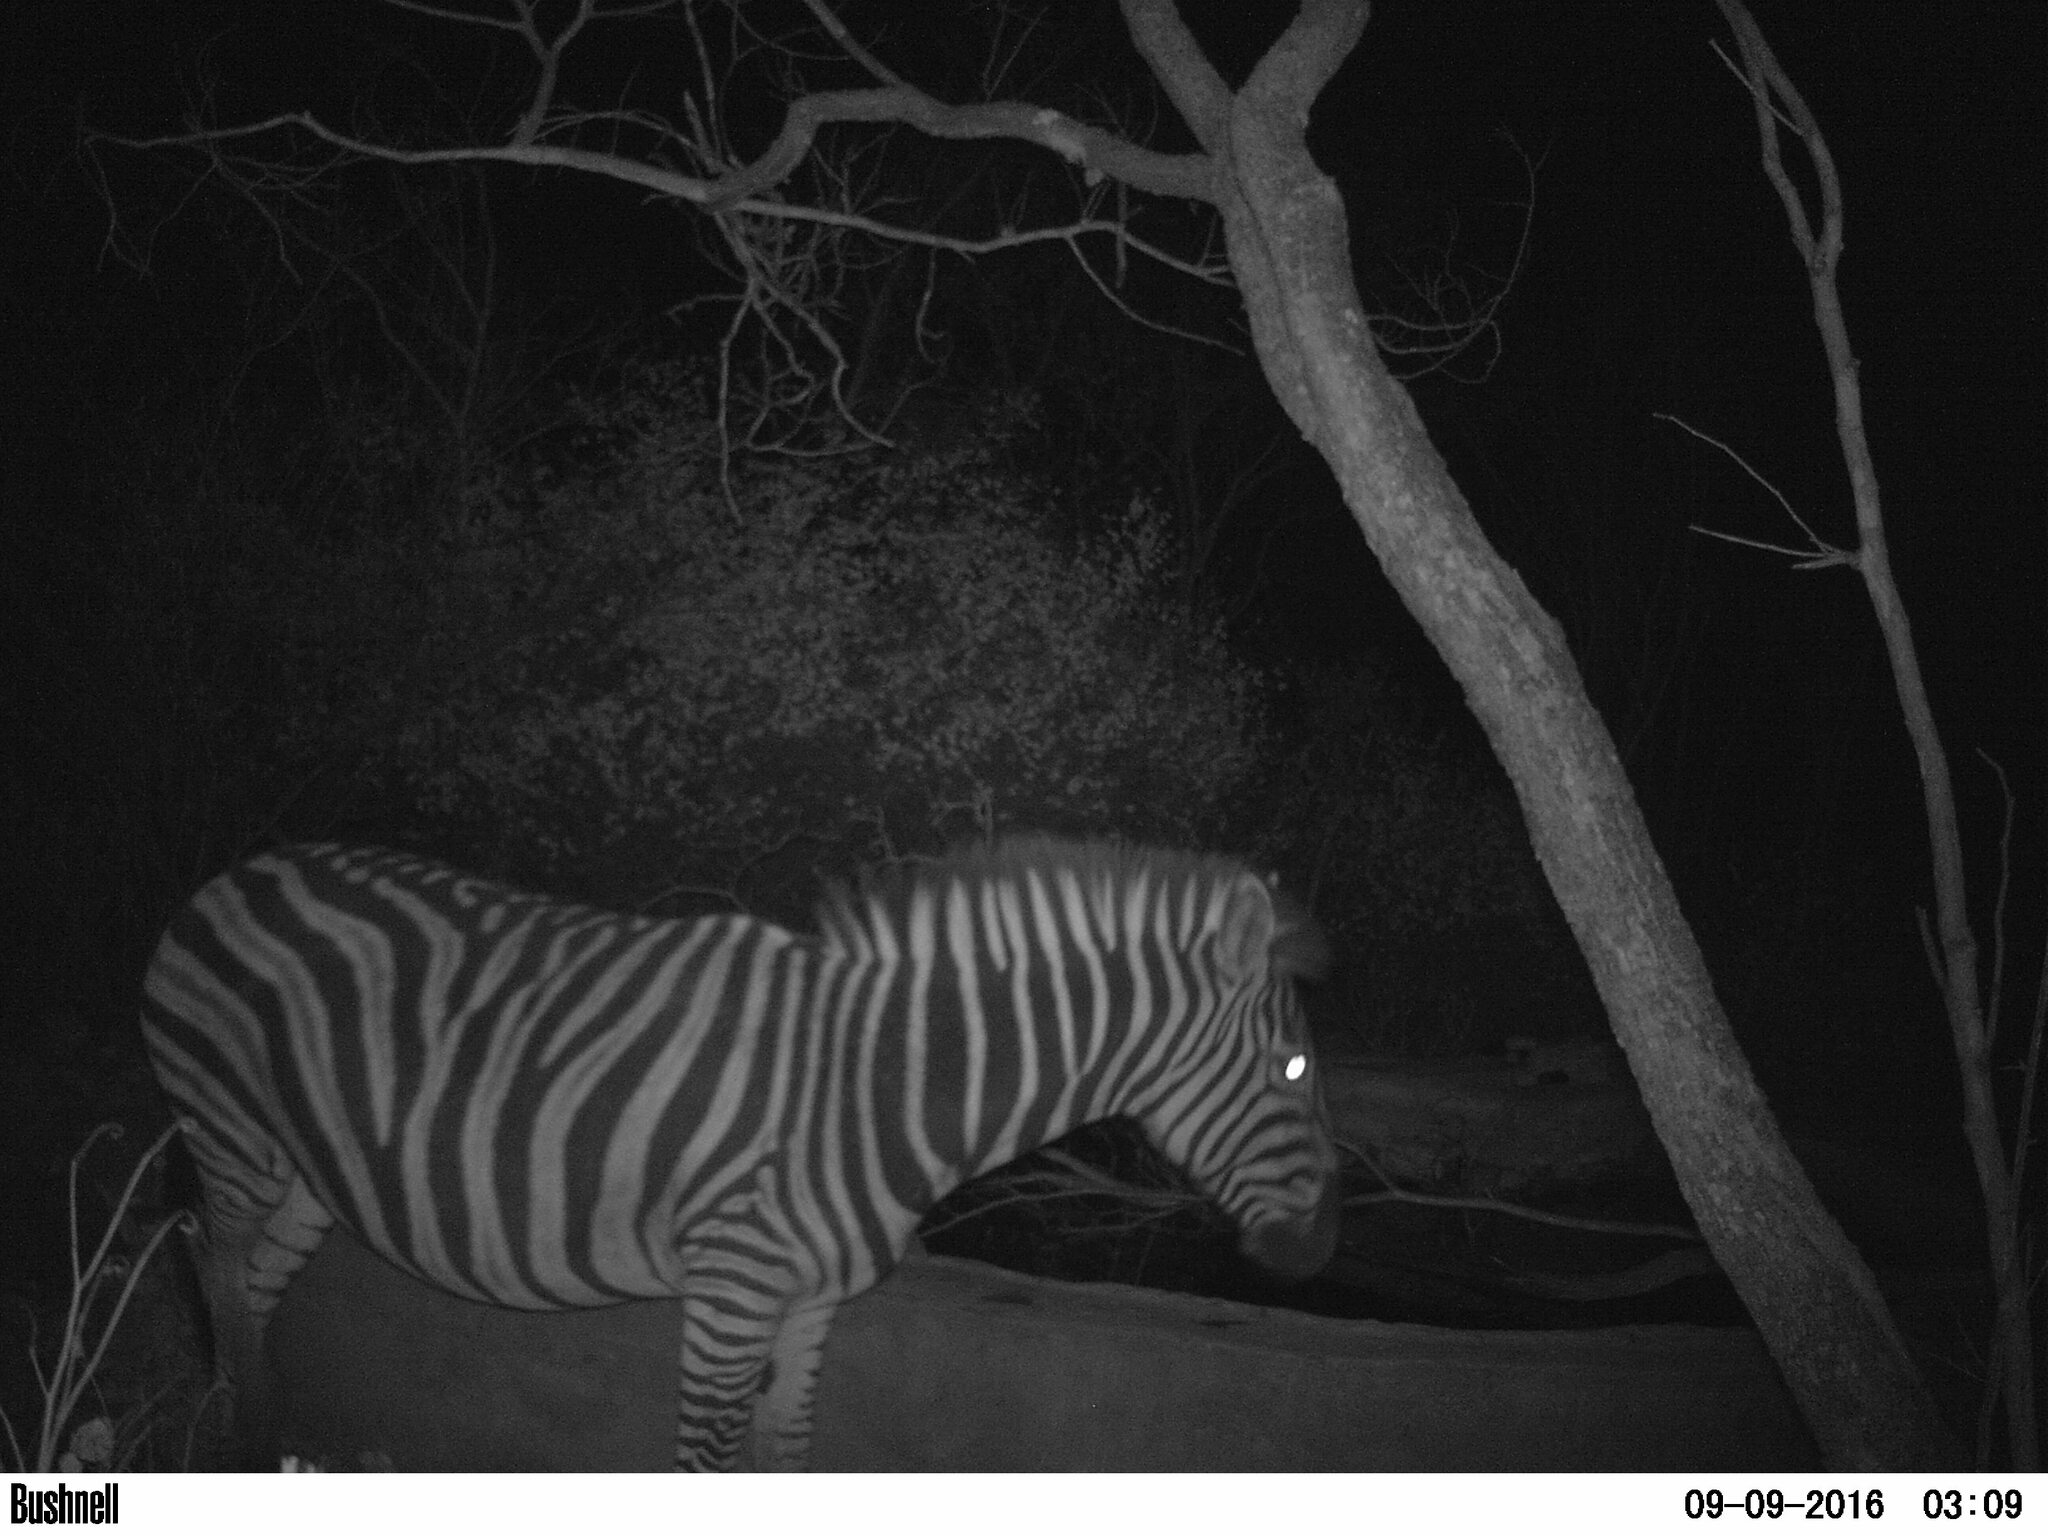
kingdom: Animalia
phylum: Chordata
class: Mammalia
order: Perissodactyla
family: Equidae
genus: Equus
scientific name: Equus quagga
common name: Plains zebra
